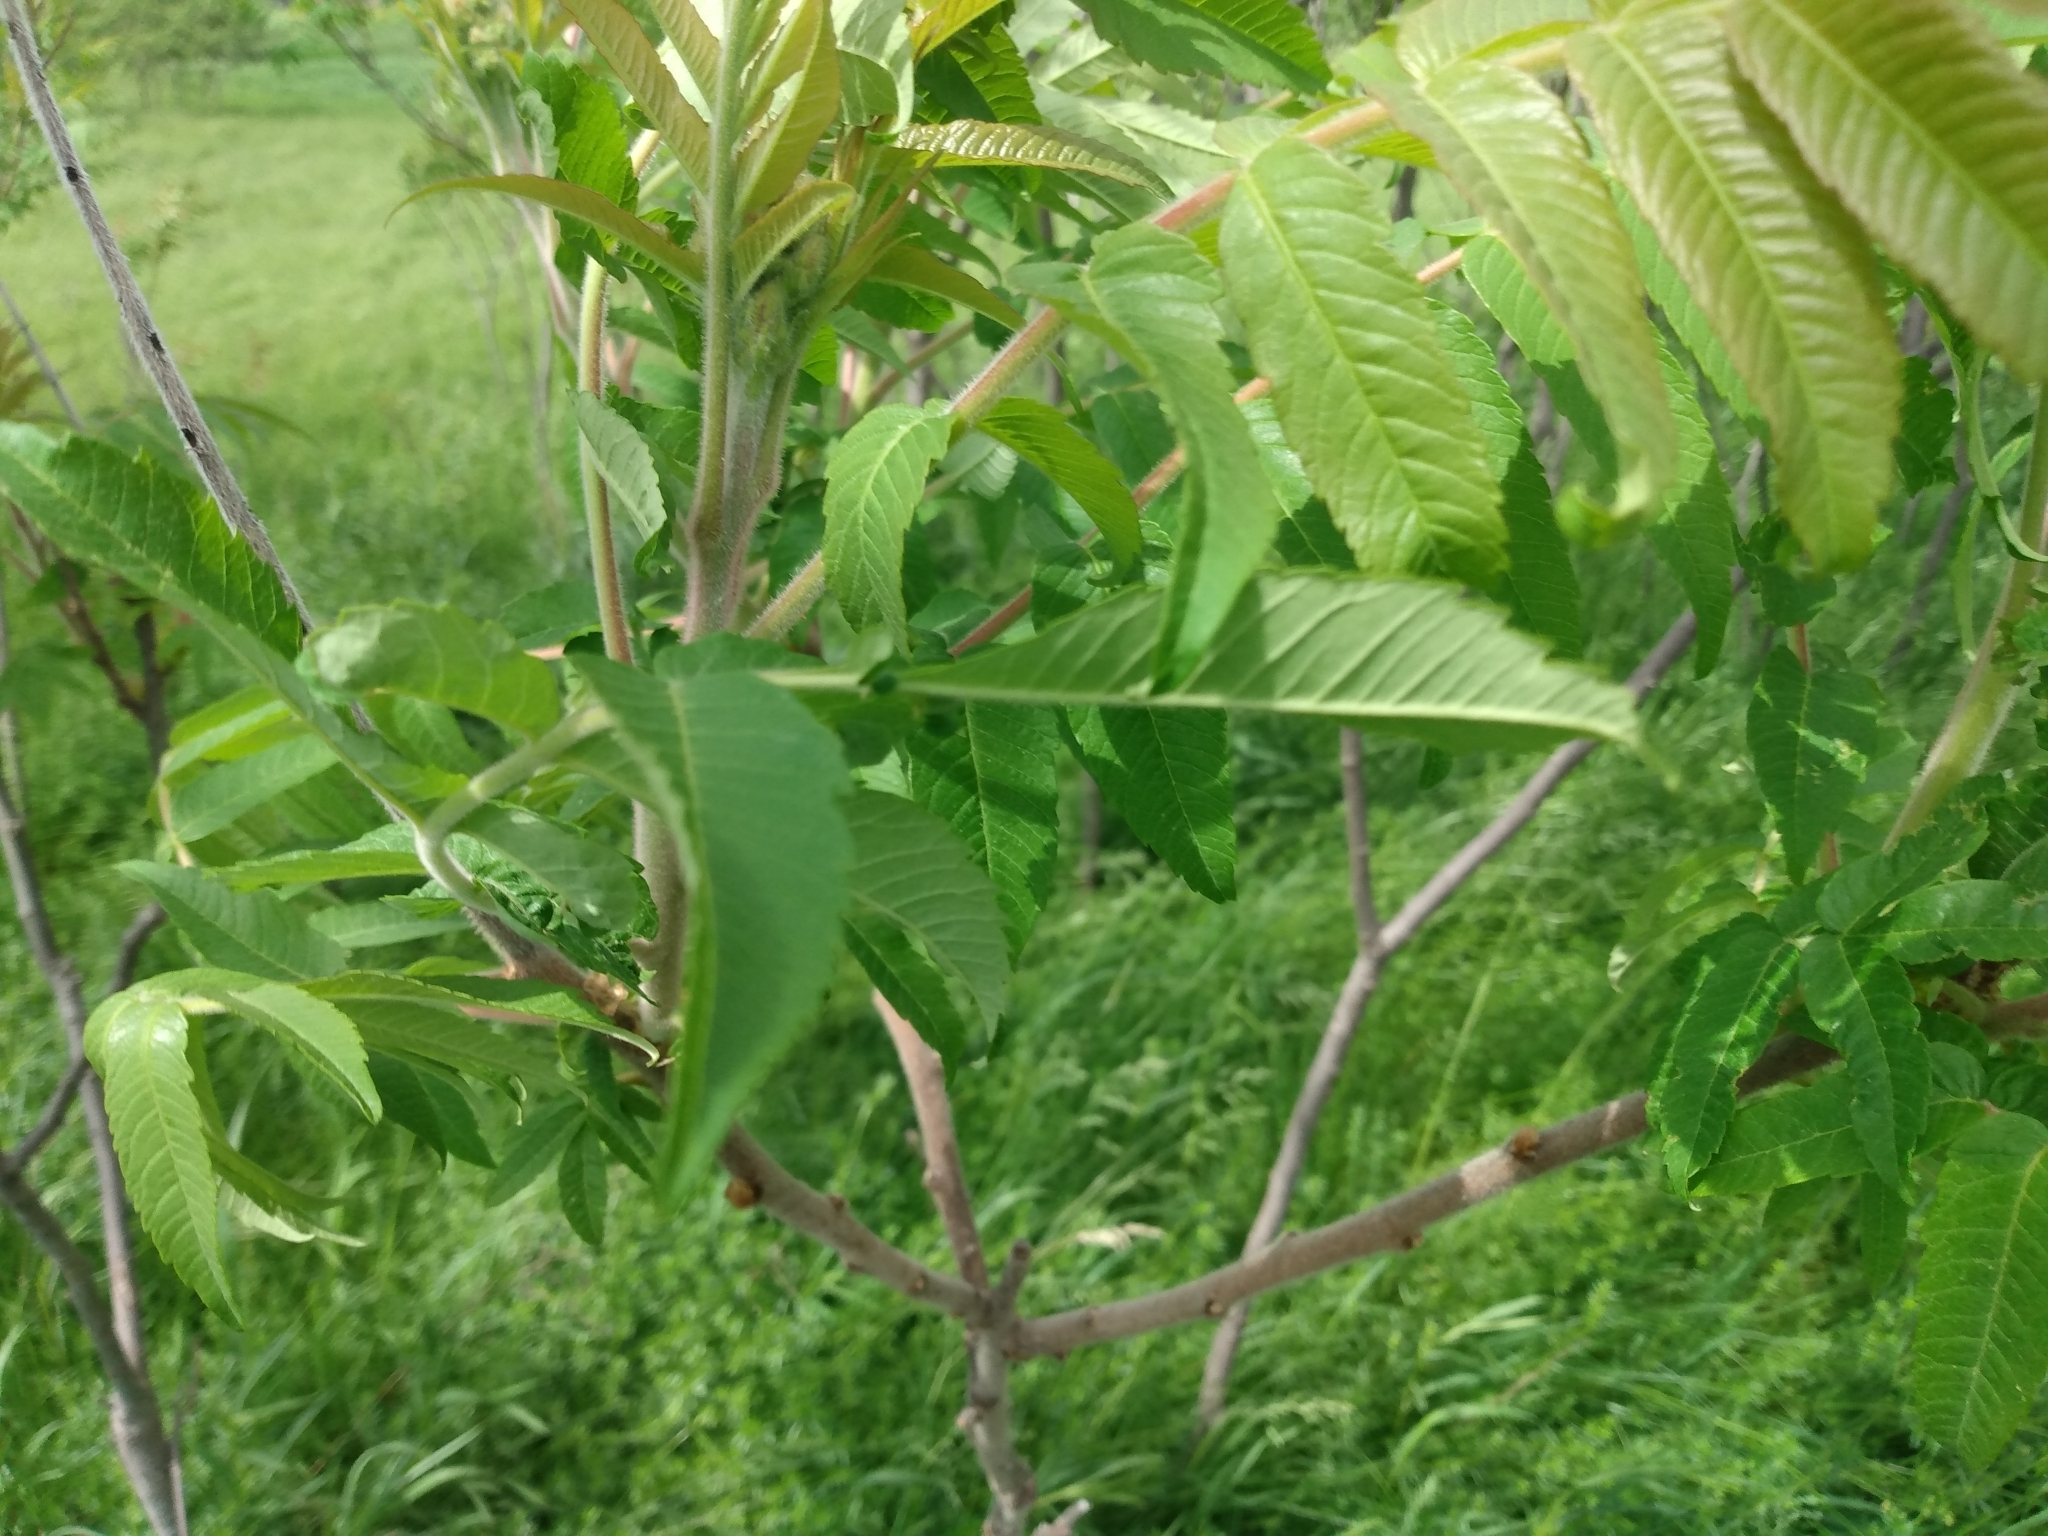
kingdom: Plantae
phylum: Tracheophyta
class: Magnoliopsida
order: Sapindales
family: Anacardiaceae
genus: Rhus
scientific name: Rhus typhina
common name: Staghorn sumac
